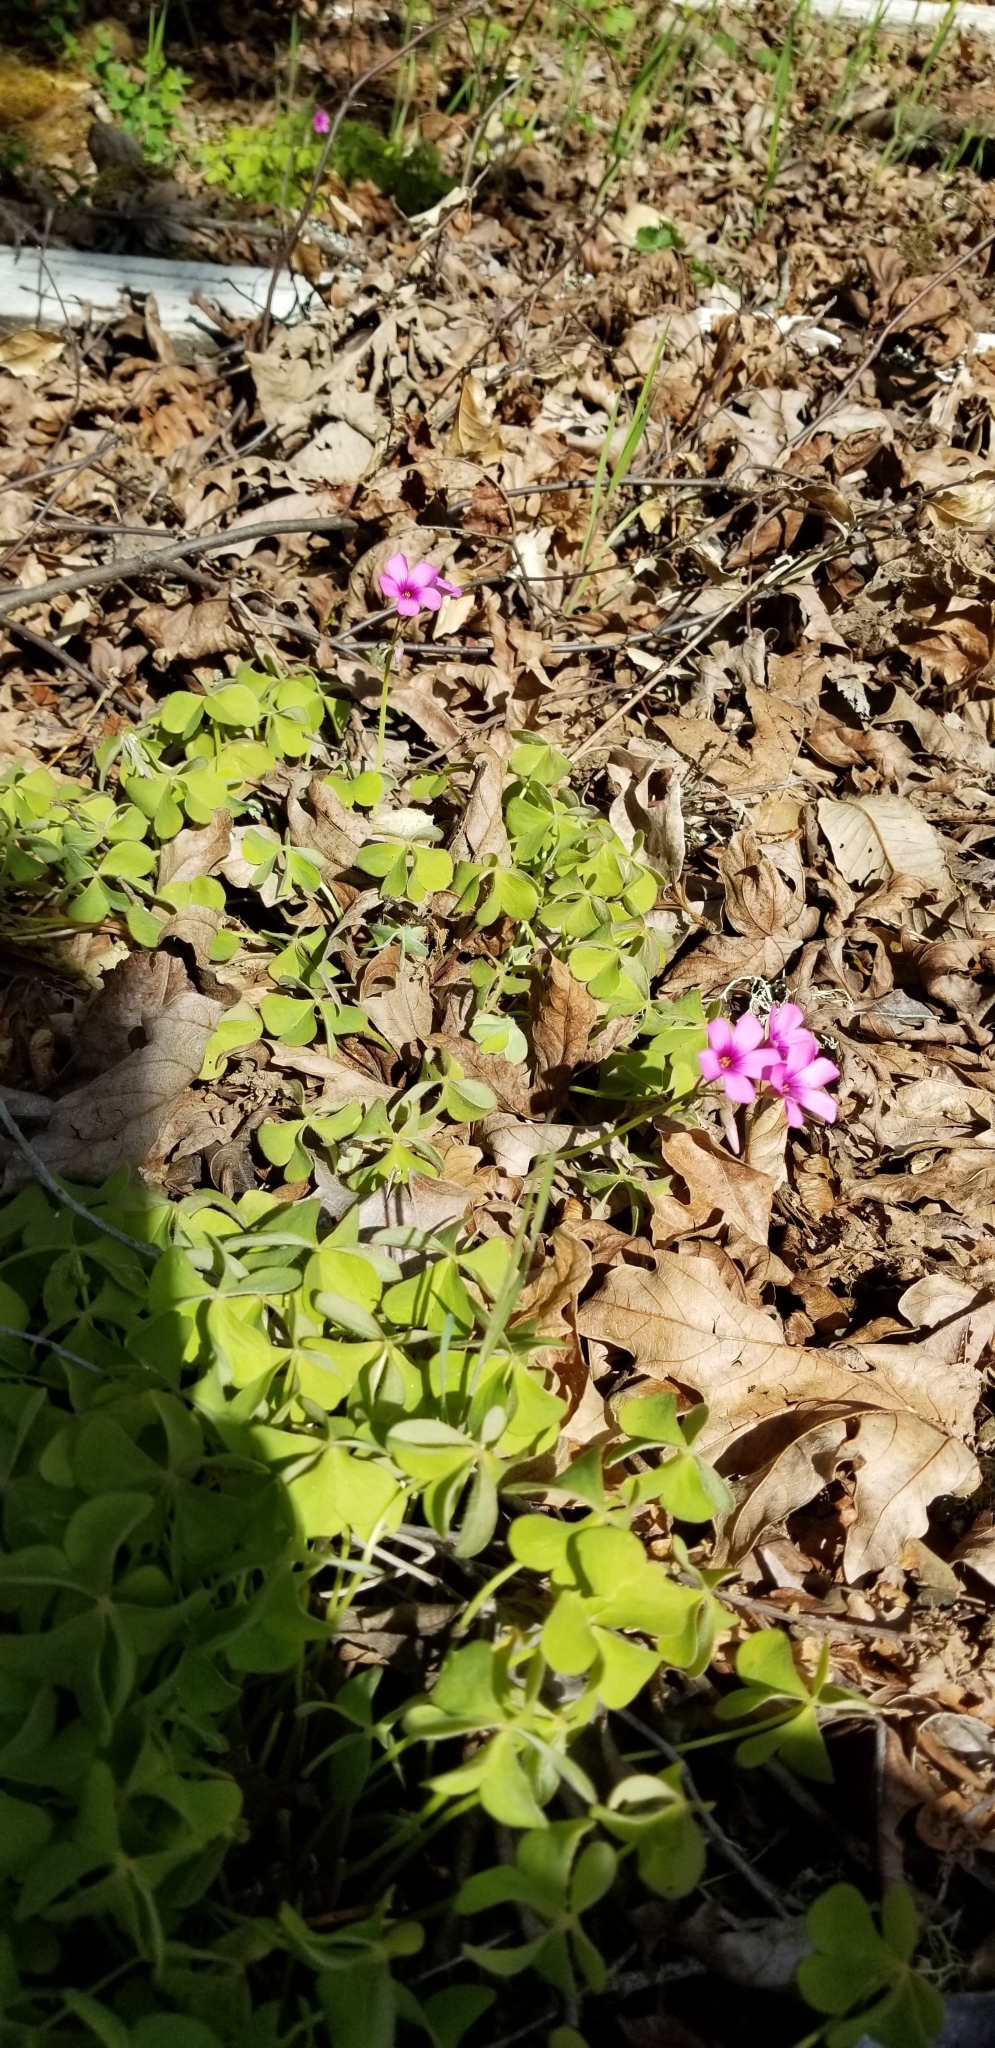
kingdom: Plantae
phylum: Tracheophyta
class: Magnoliopsida
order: Oxalidales
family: Oxalidaceae
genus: Oxalis
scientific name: Oxalis articulata
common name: Pink-sorrel
